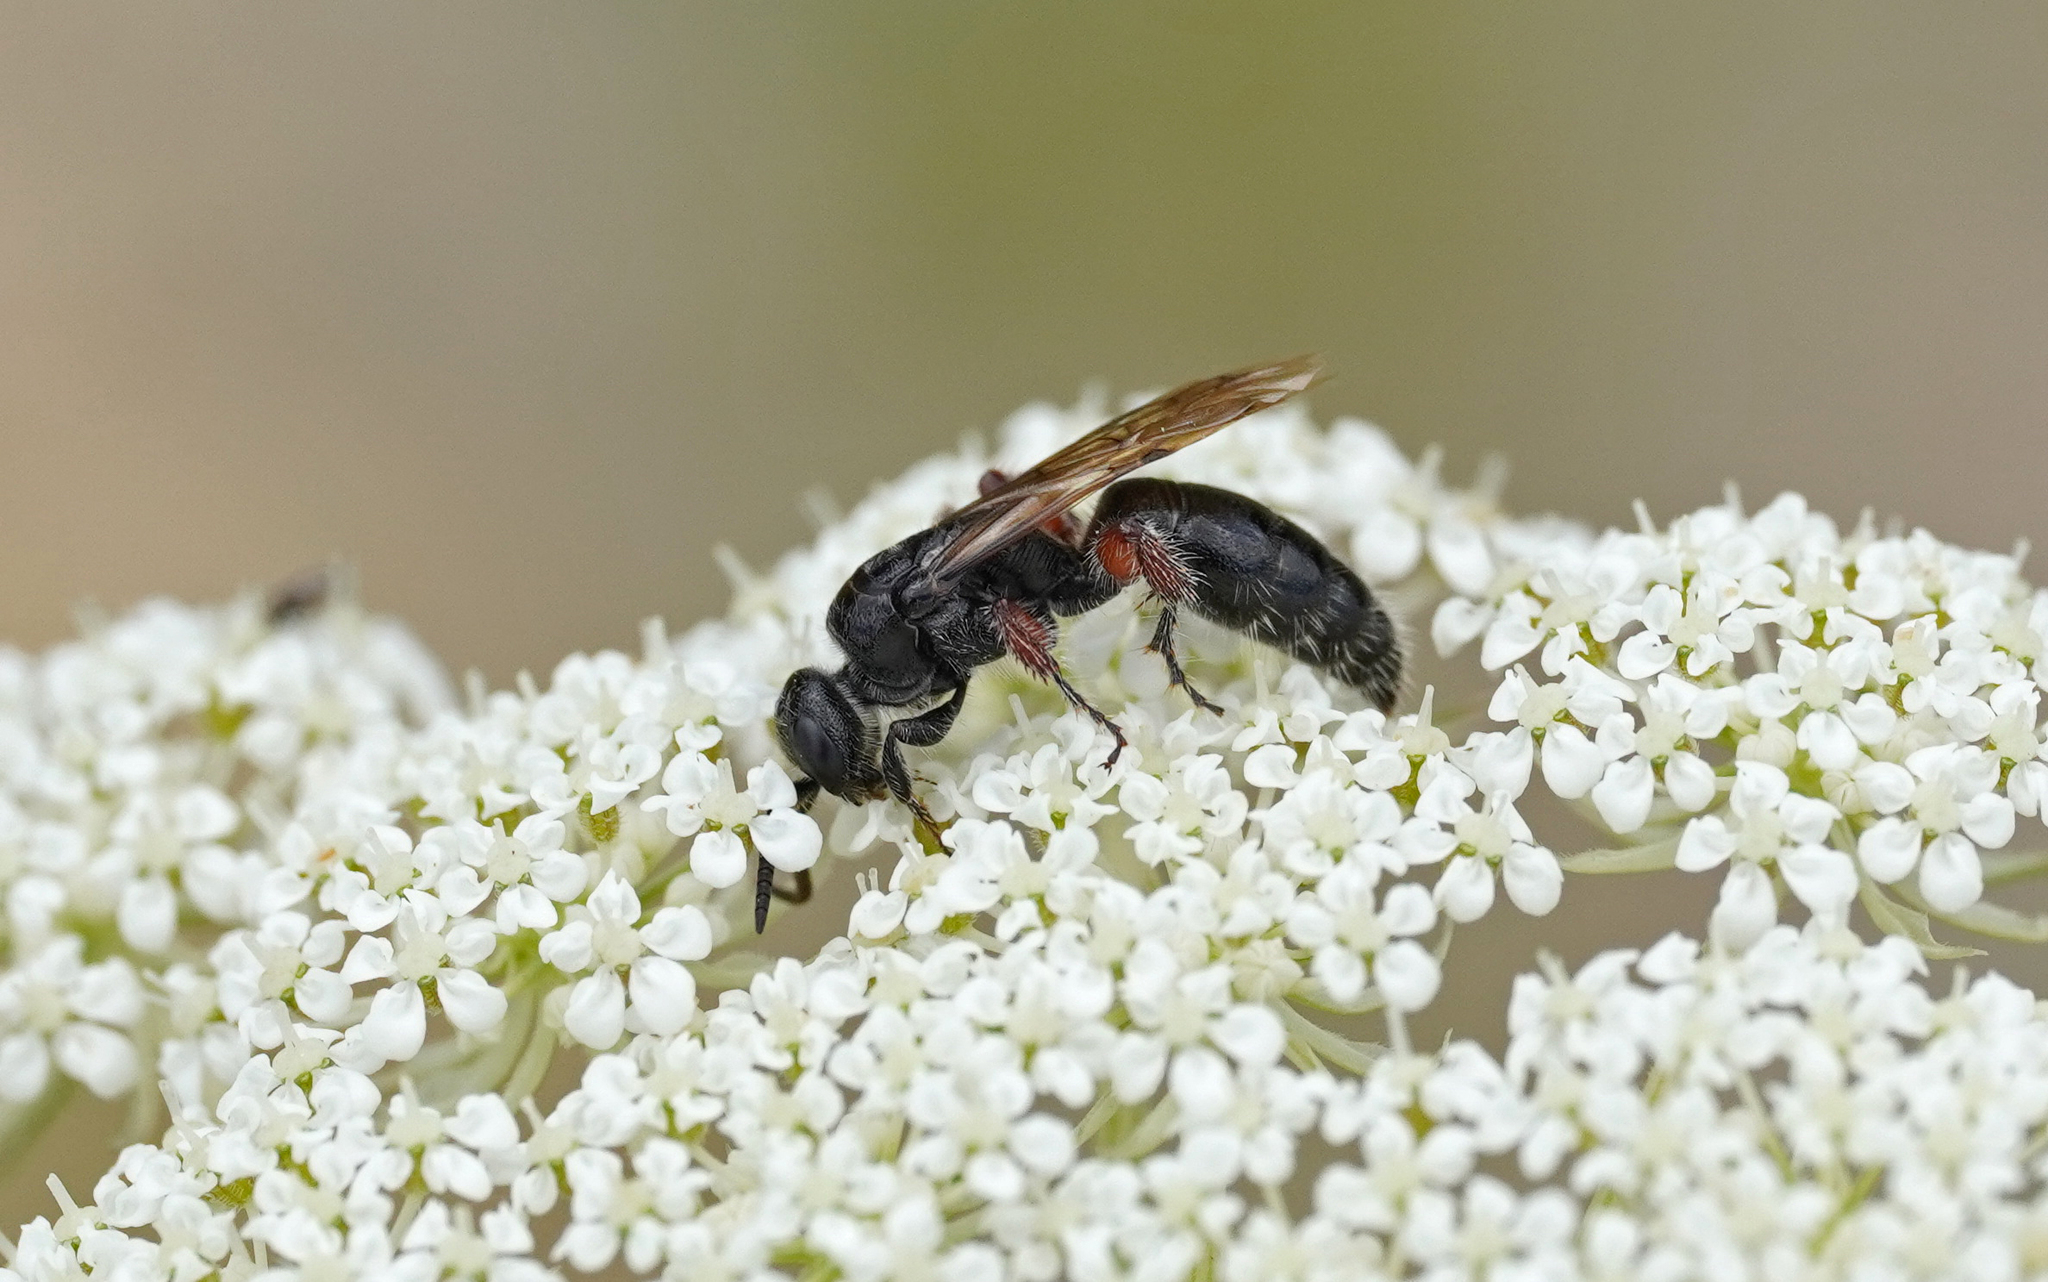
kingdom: Animalia
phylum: Arthropoda
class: Insecta
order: Hymenoptera
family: Tiphiidae
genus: Tiphia
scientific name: Tiphia femorata
